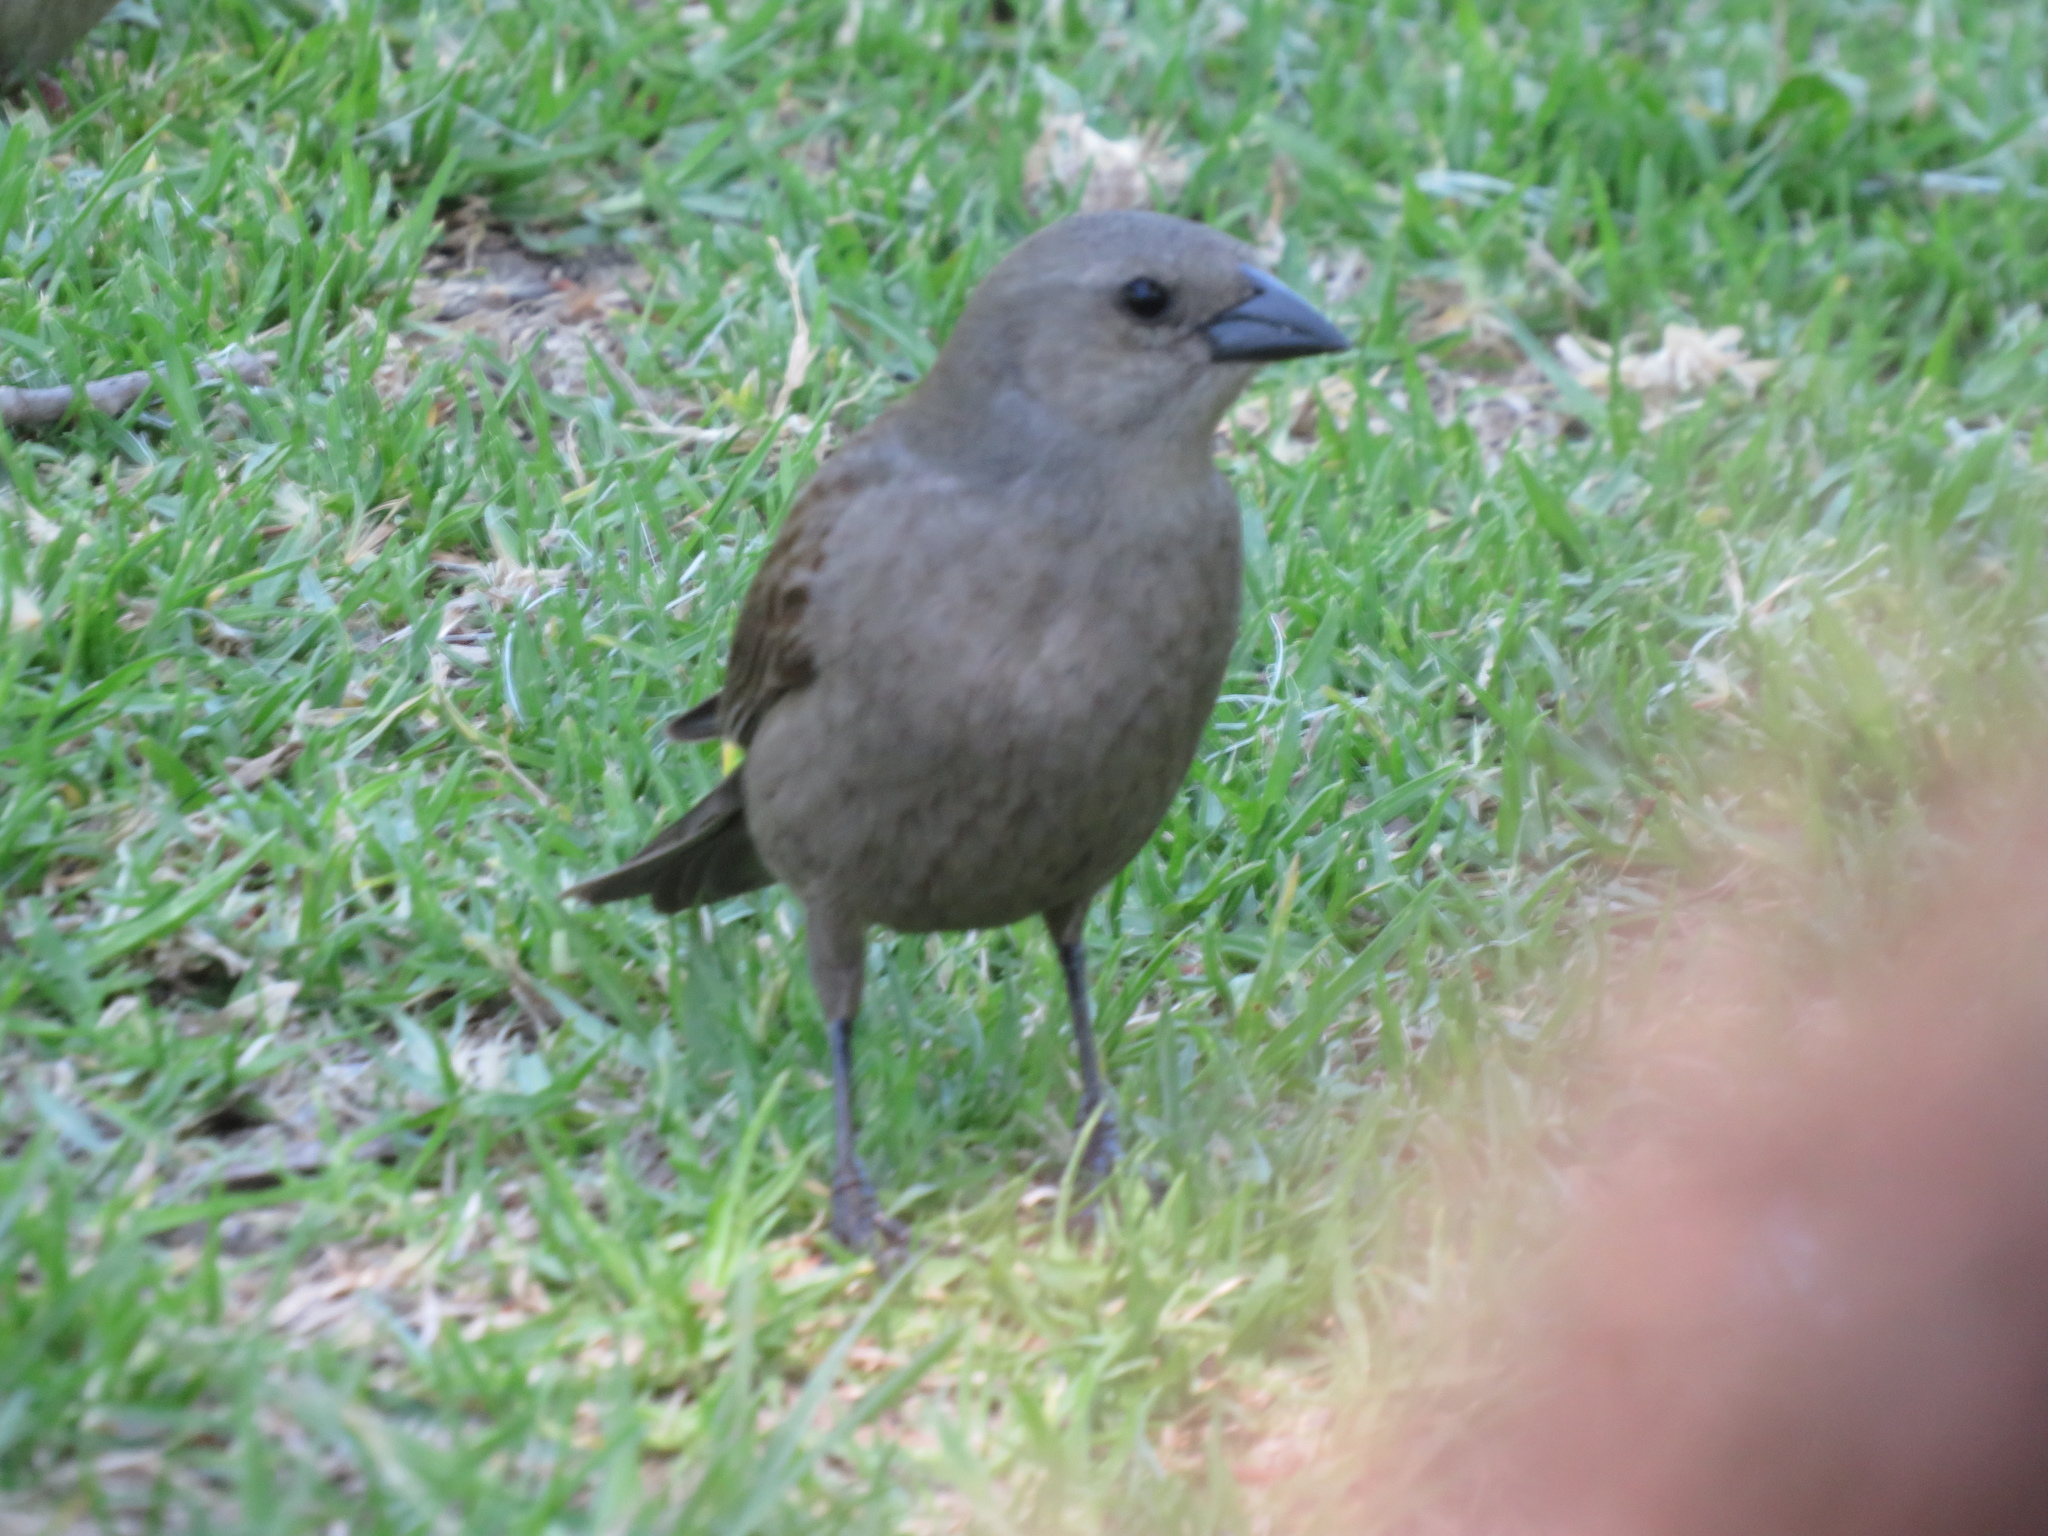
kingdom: Animalia
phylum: Chordata
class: Aves
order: Passeriformes
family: Passeridae
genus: Passer
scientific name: Passer domesticus
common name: House sparrow
